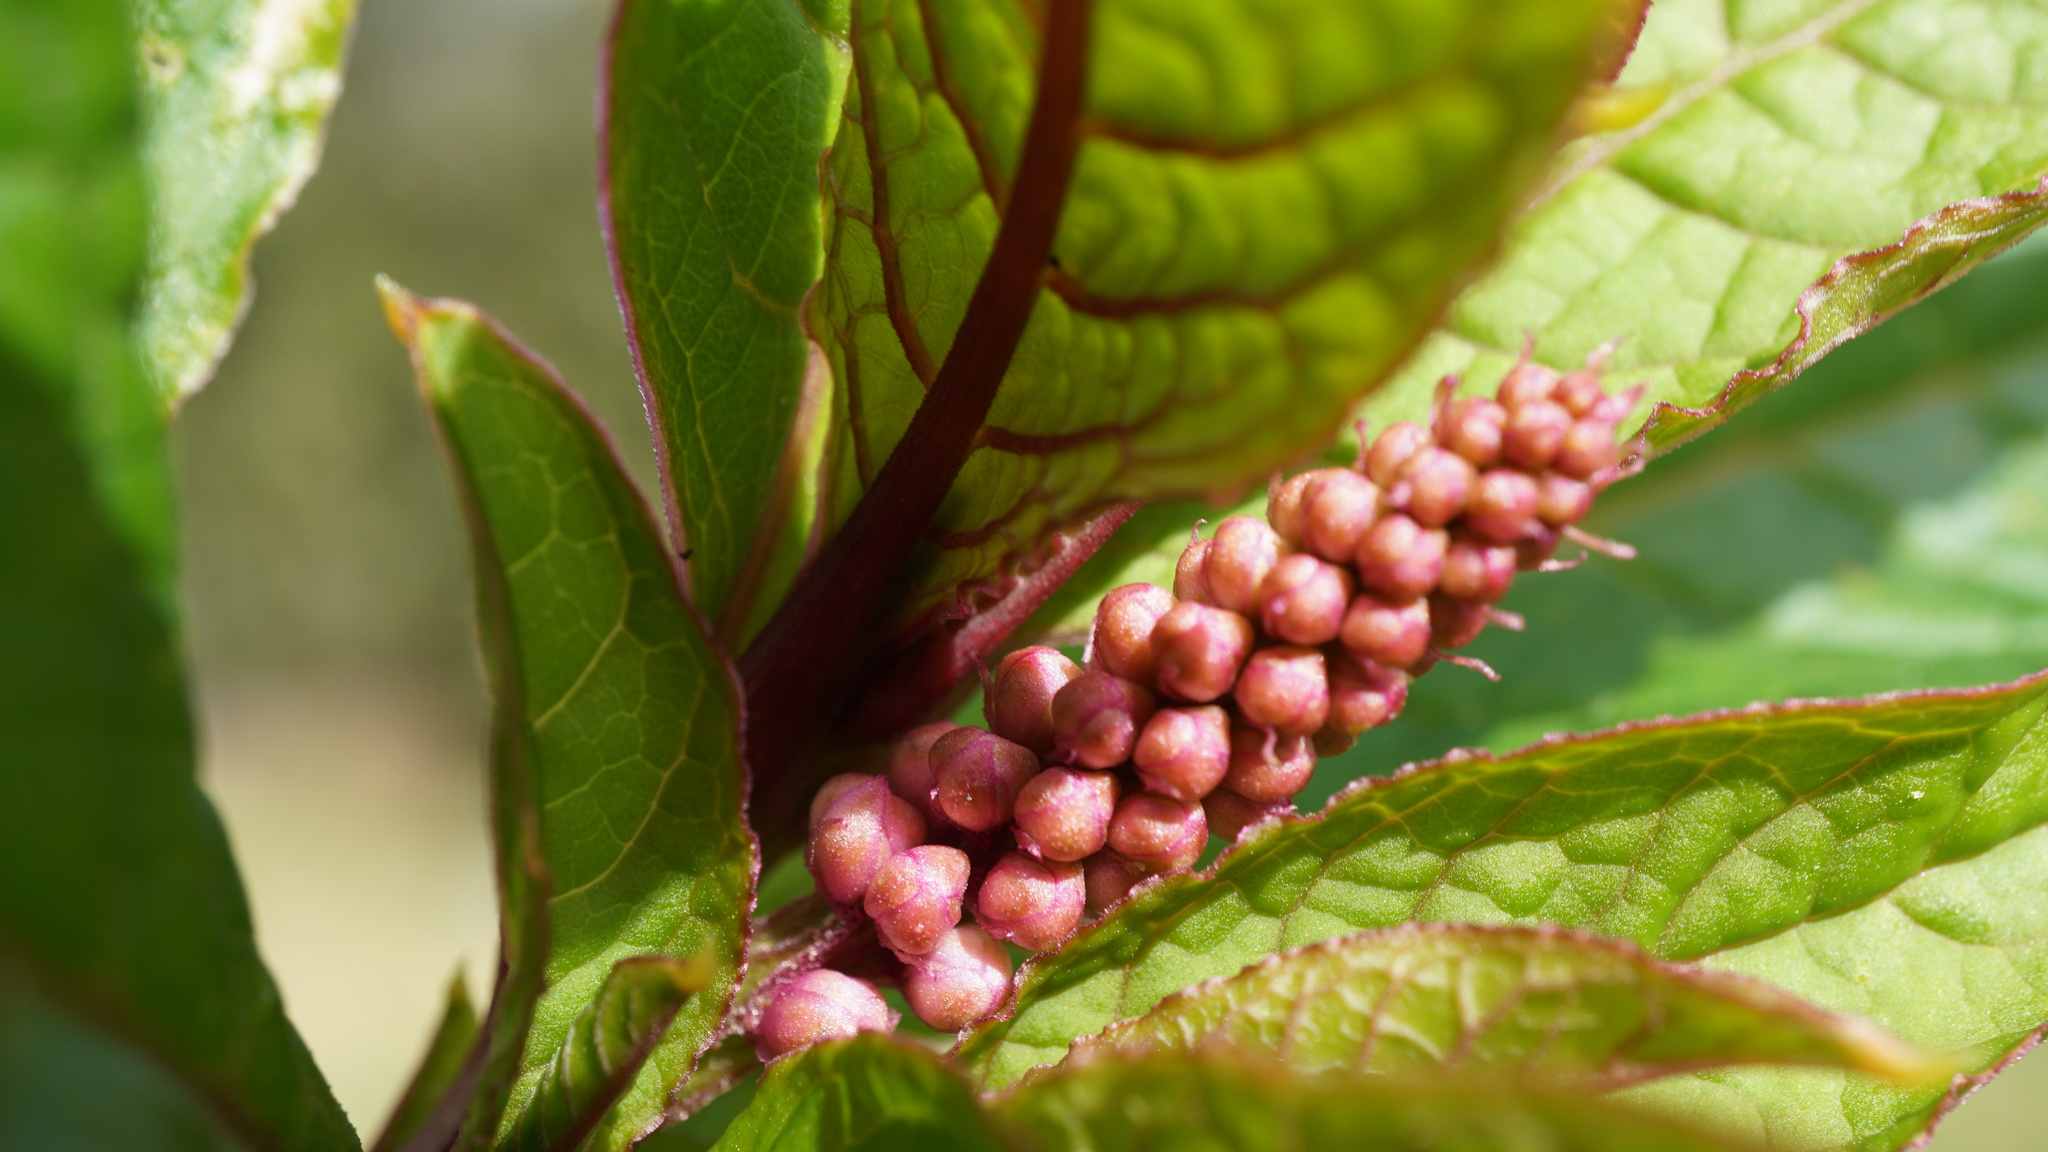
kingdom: Plantae
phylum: Tracheophyta
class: Magnoliopsida
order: Caryophyllales
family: Phytolaccaceae
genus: Phytolacca
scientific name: Phytolacca bogotensis
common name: Southern pokeweed
